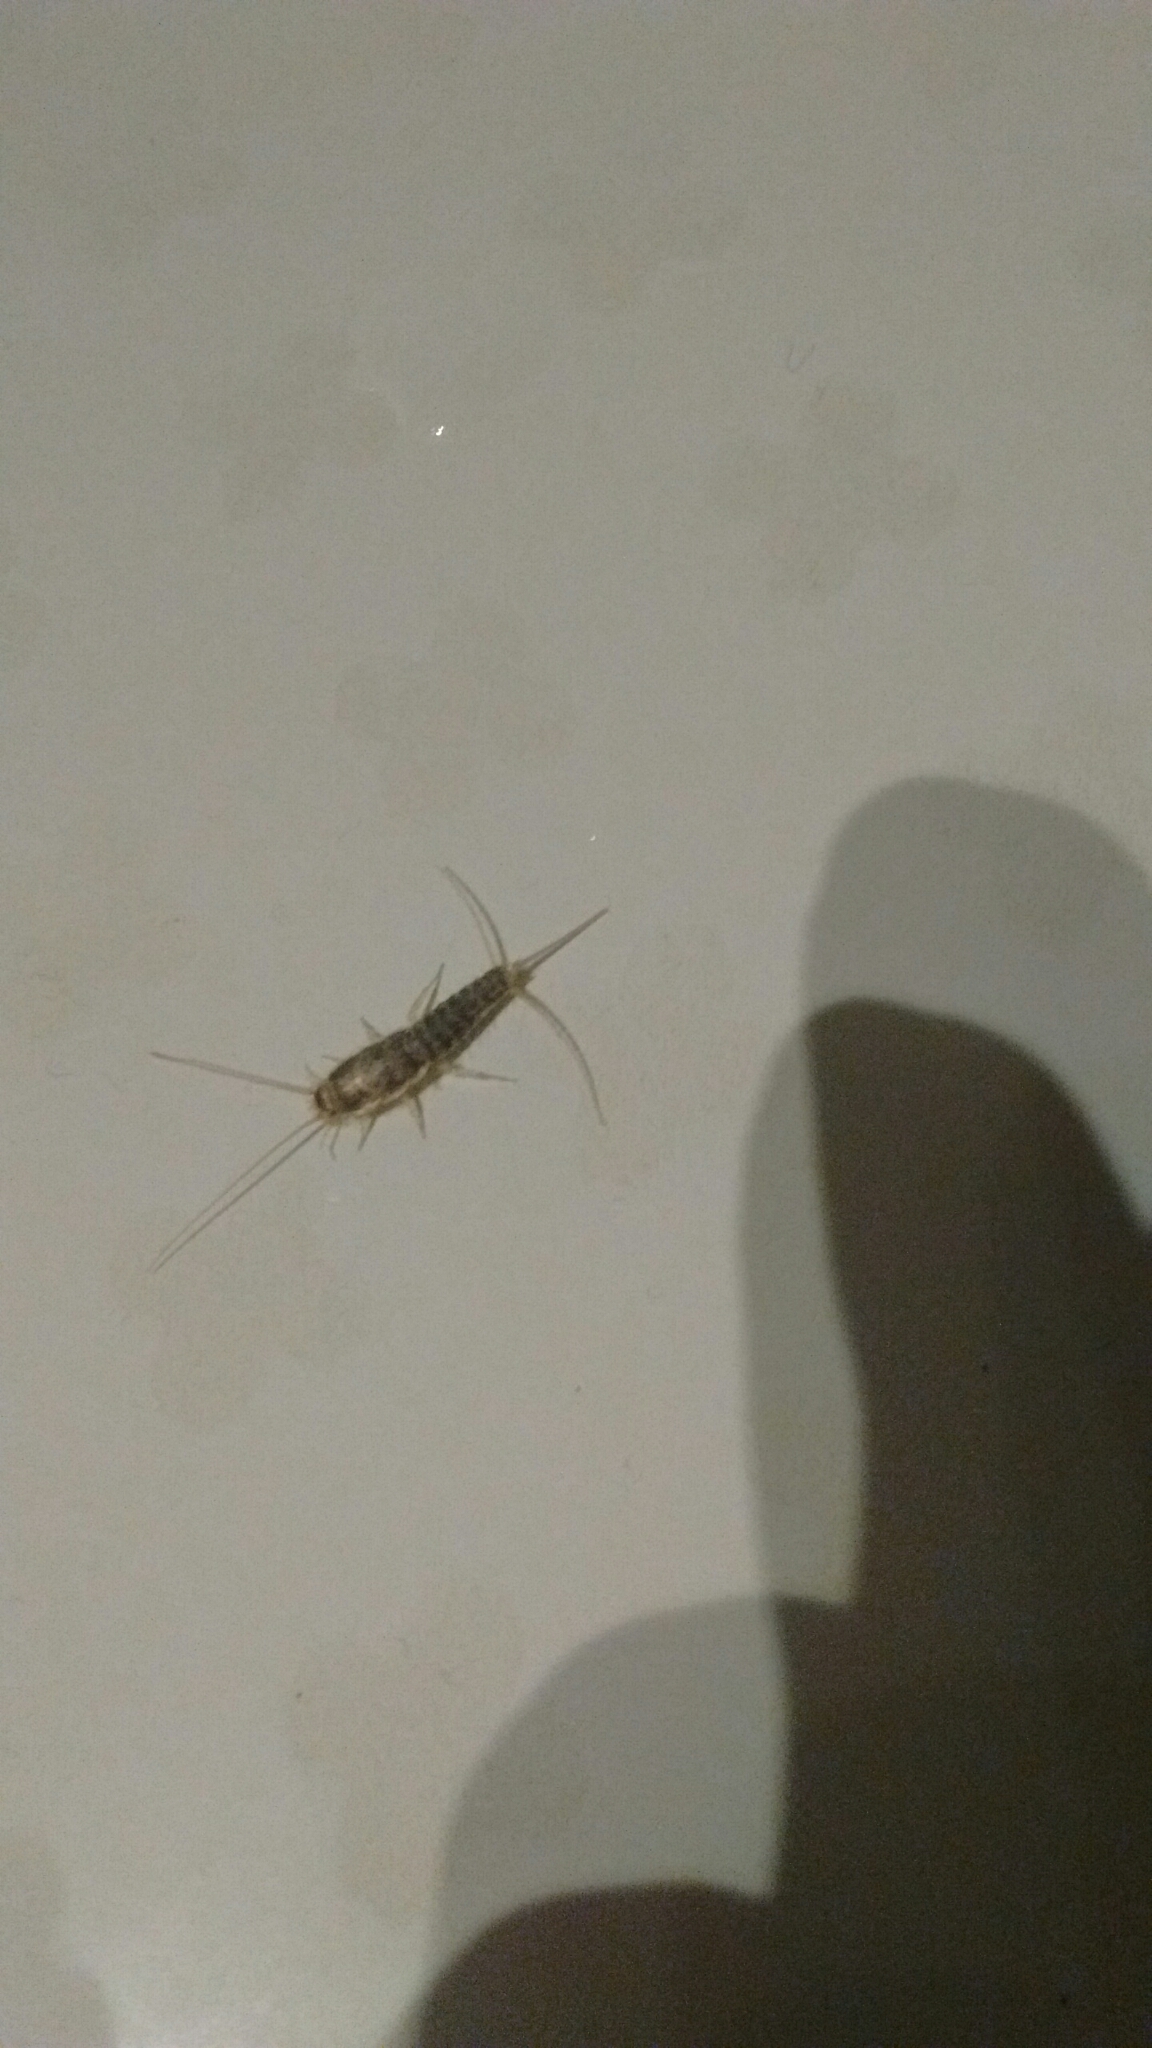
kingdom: Animalia
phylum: Arthropoda
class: Insecta
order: Zygentoma
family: Lepismatidae
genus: Ctenolepisma
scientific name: Ctenolepisma longicaudatum
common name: Silverfish
